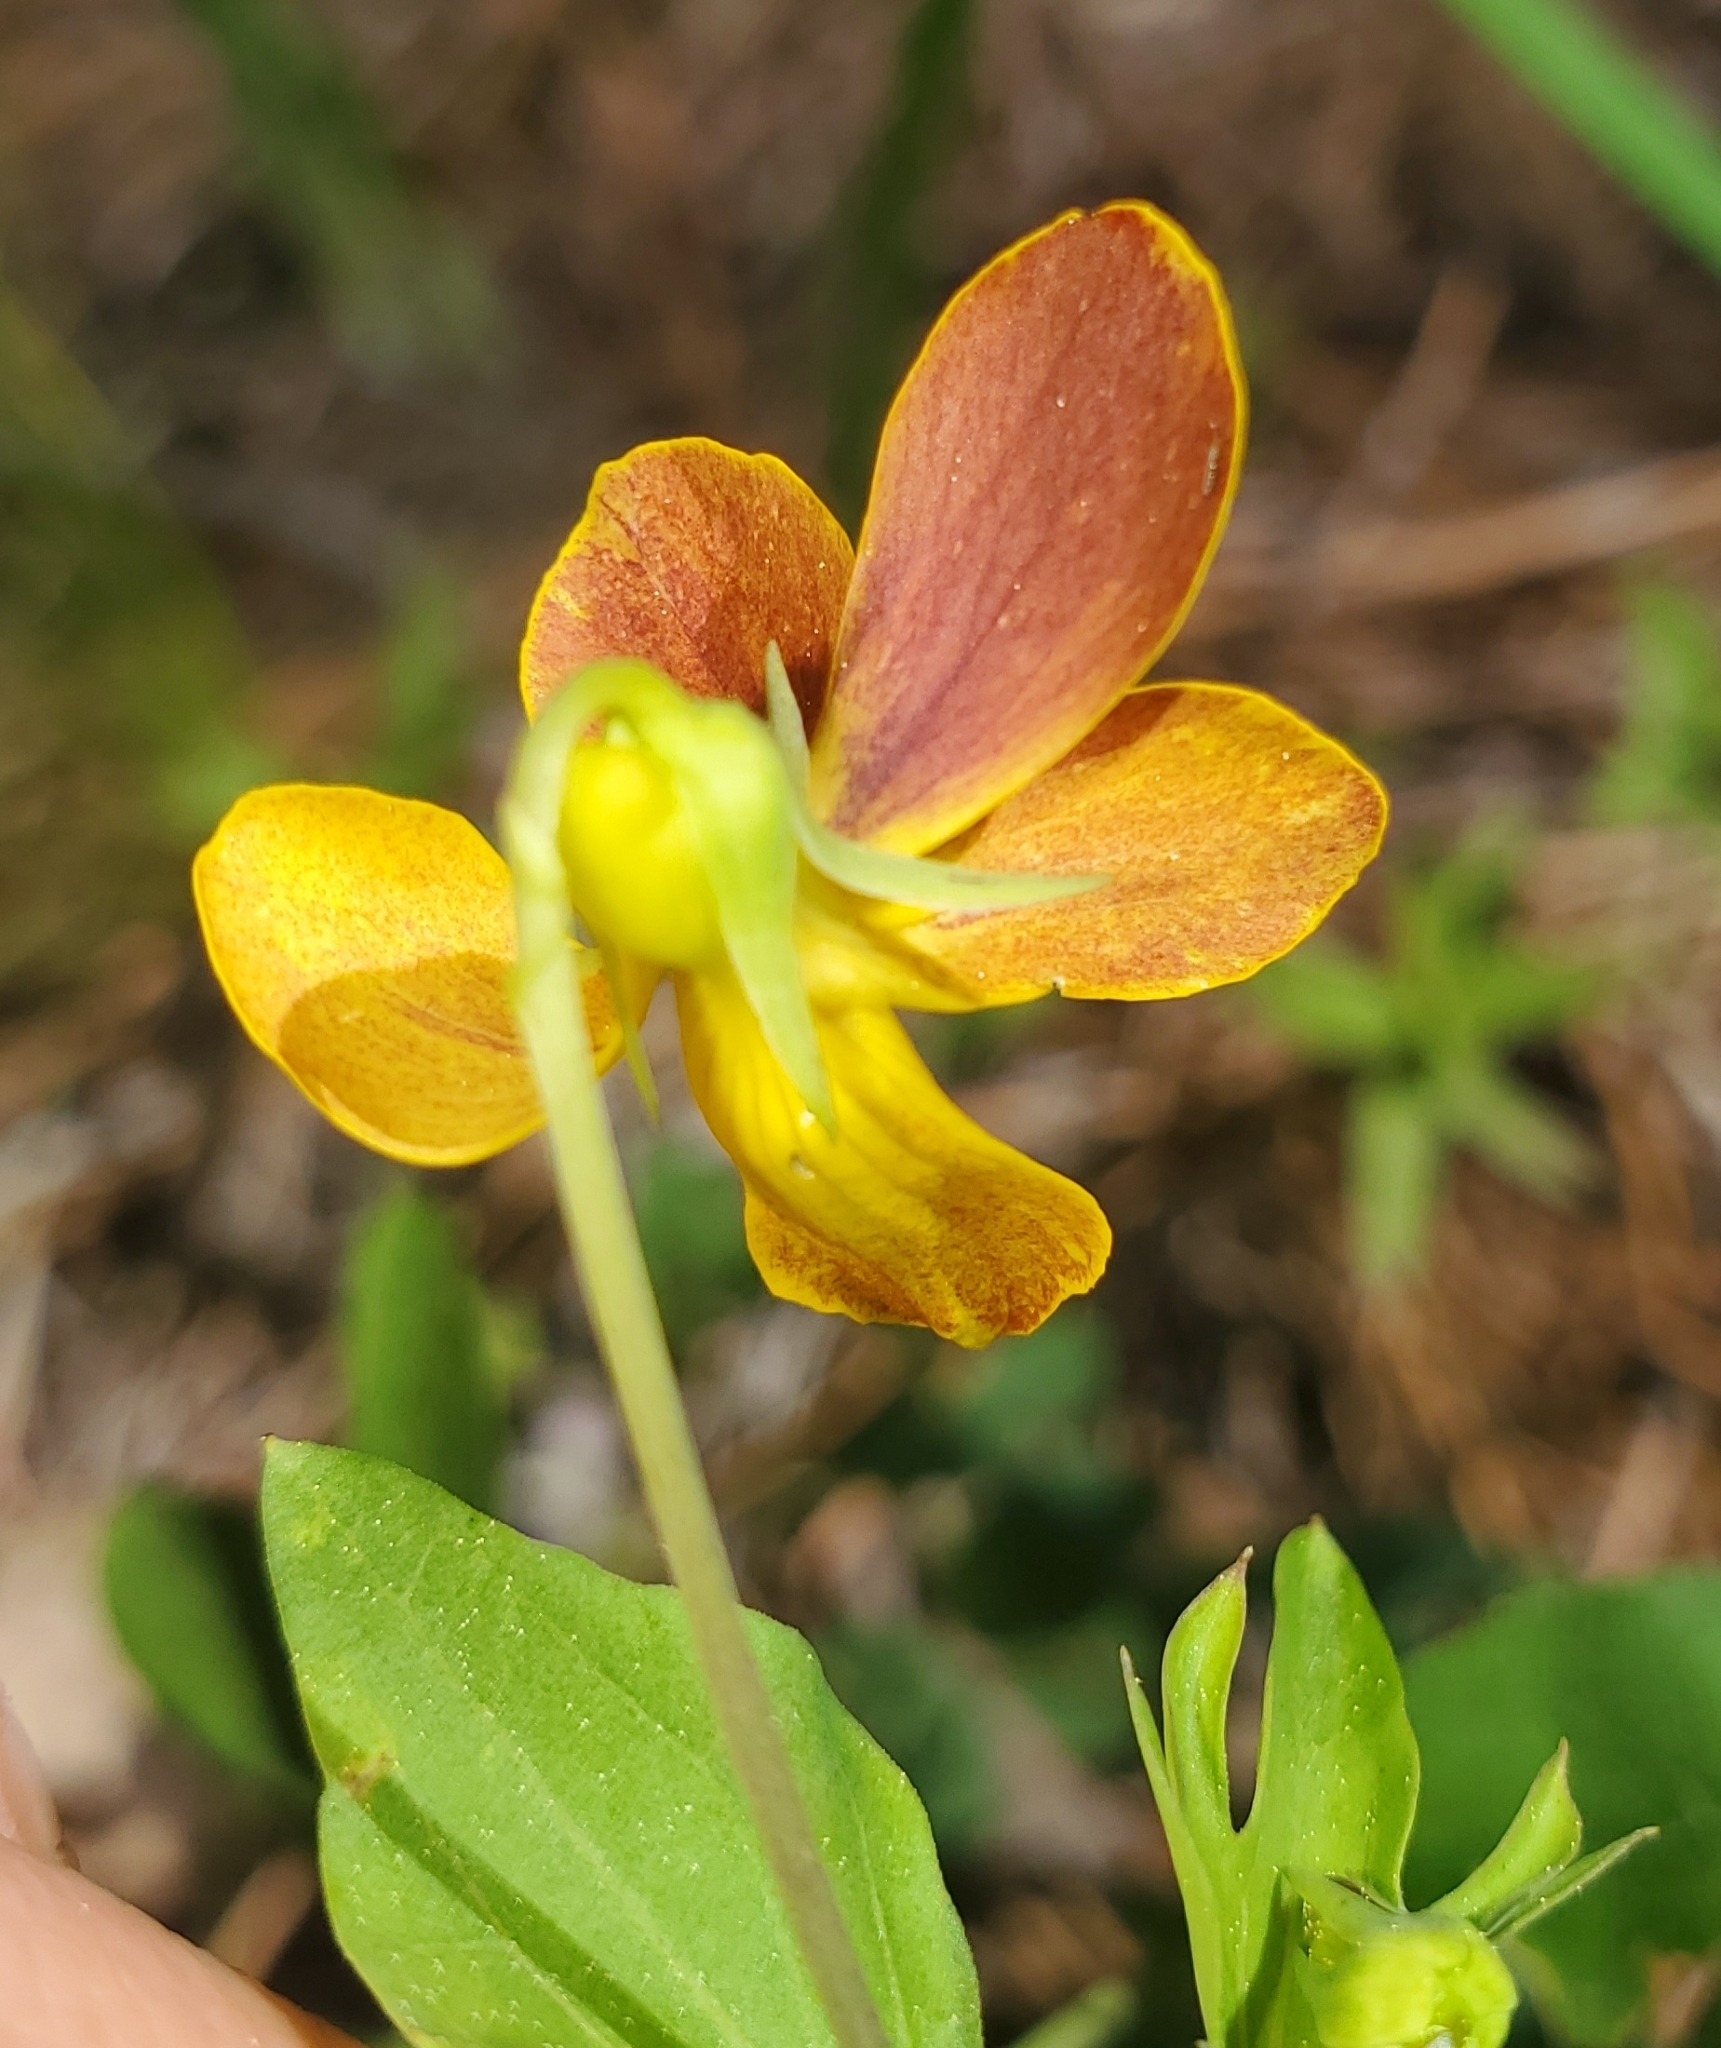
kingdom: Plantae
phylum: Tracheophyta
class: Magnoliopsida
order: Malpighiales
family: Violaceae
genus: Viola
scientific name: Viola lobata
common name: Pine violet
